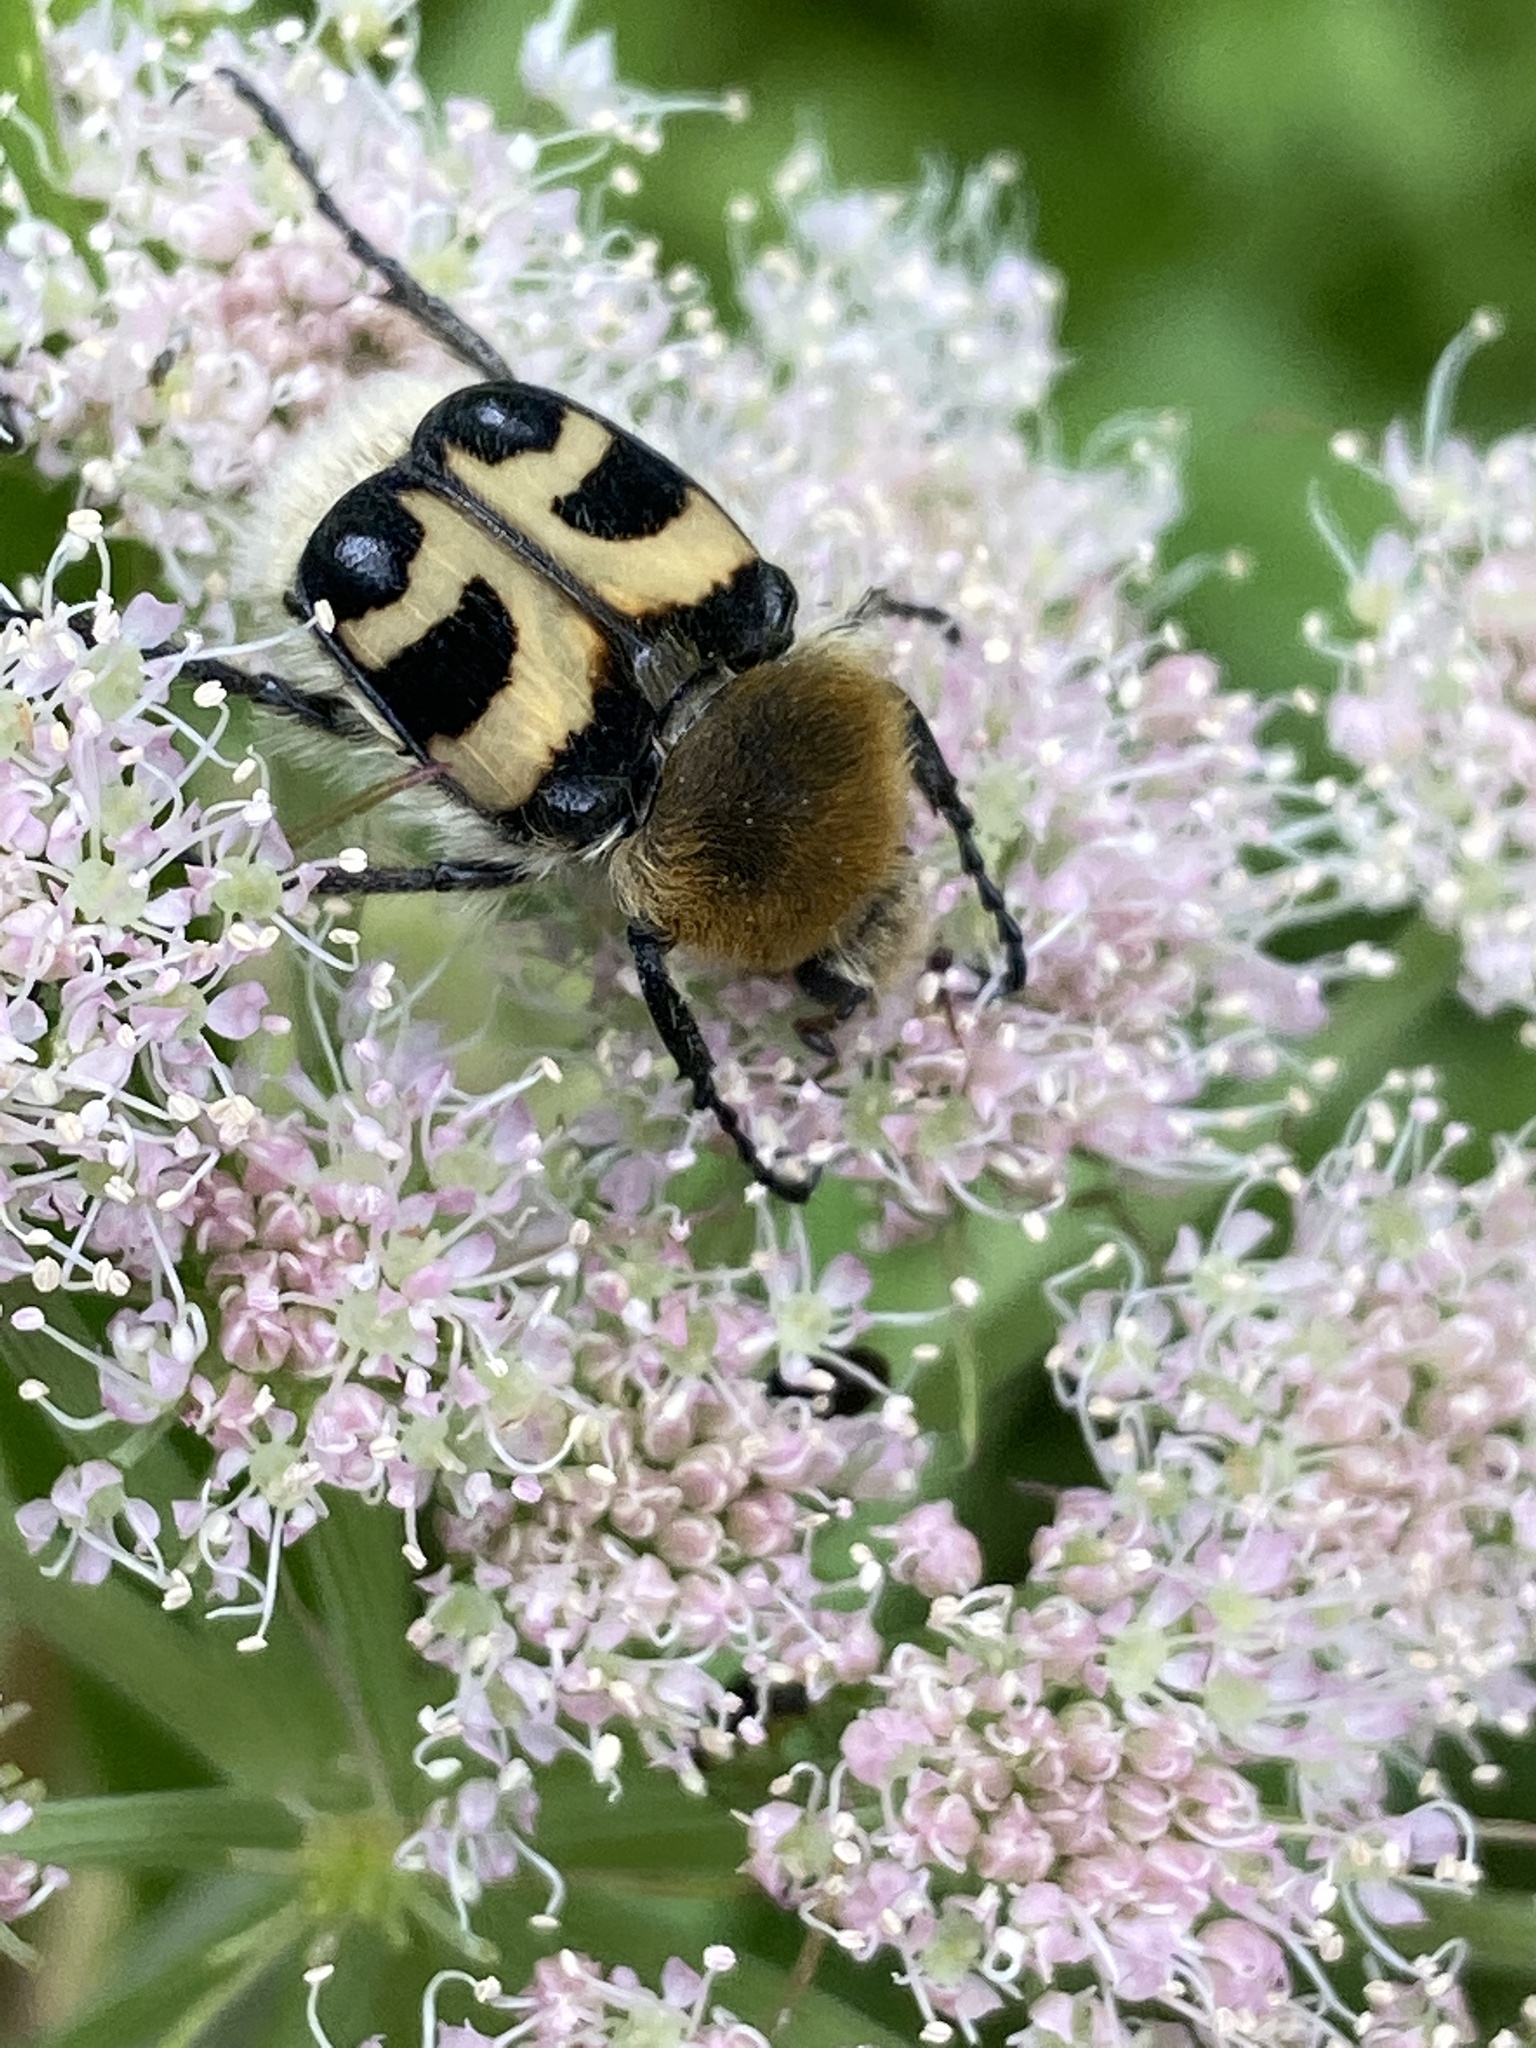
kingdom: Animalia
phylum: Arthropoda
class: Insecta
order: Coleoptera
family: Scarabaeidae
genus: Trichius
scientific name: Trichius fasciatus
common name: Bee beetle
